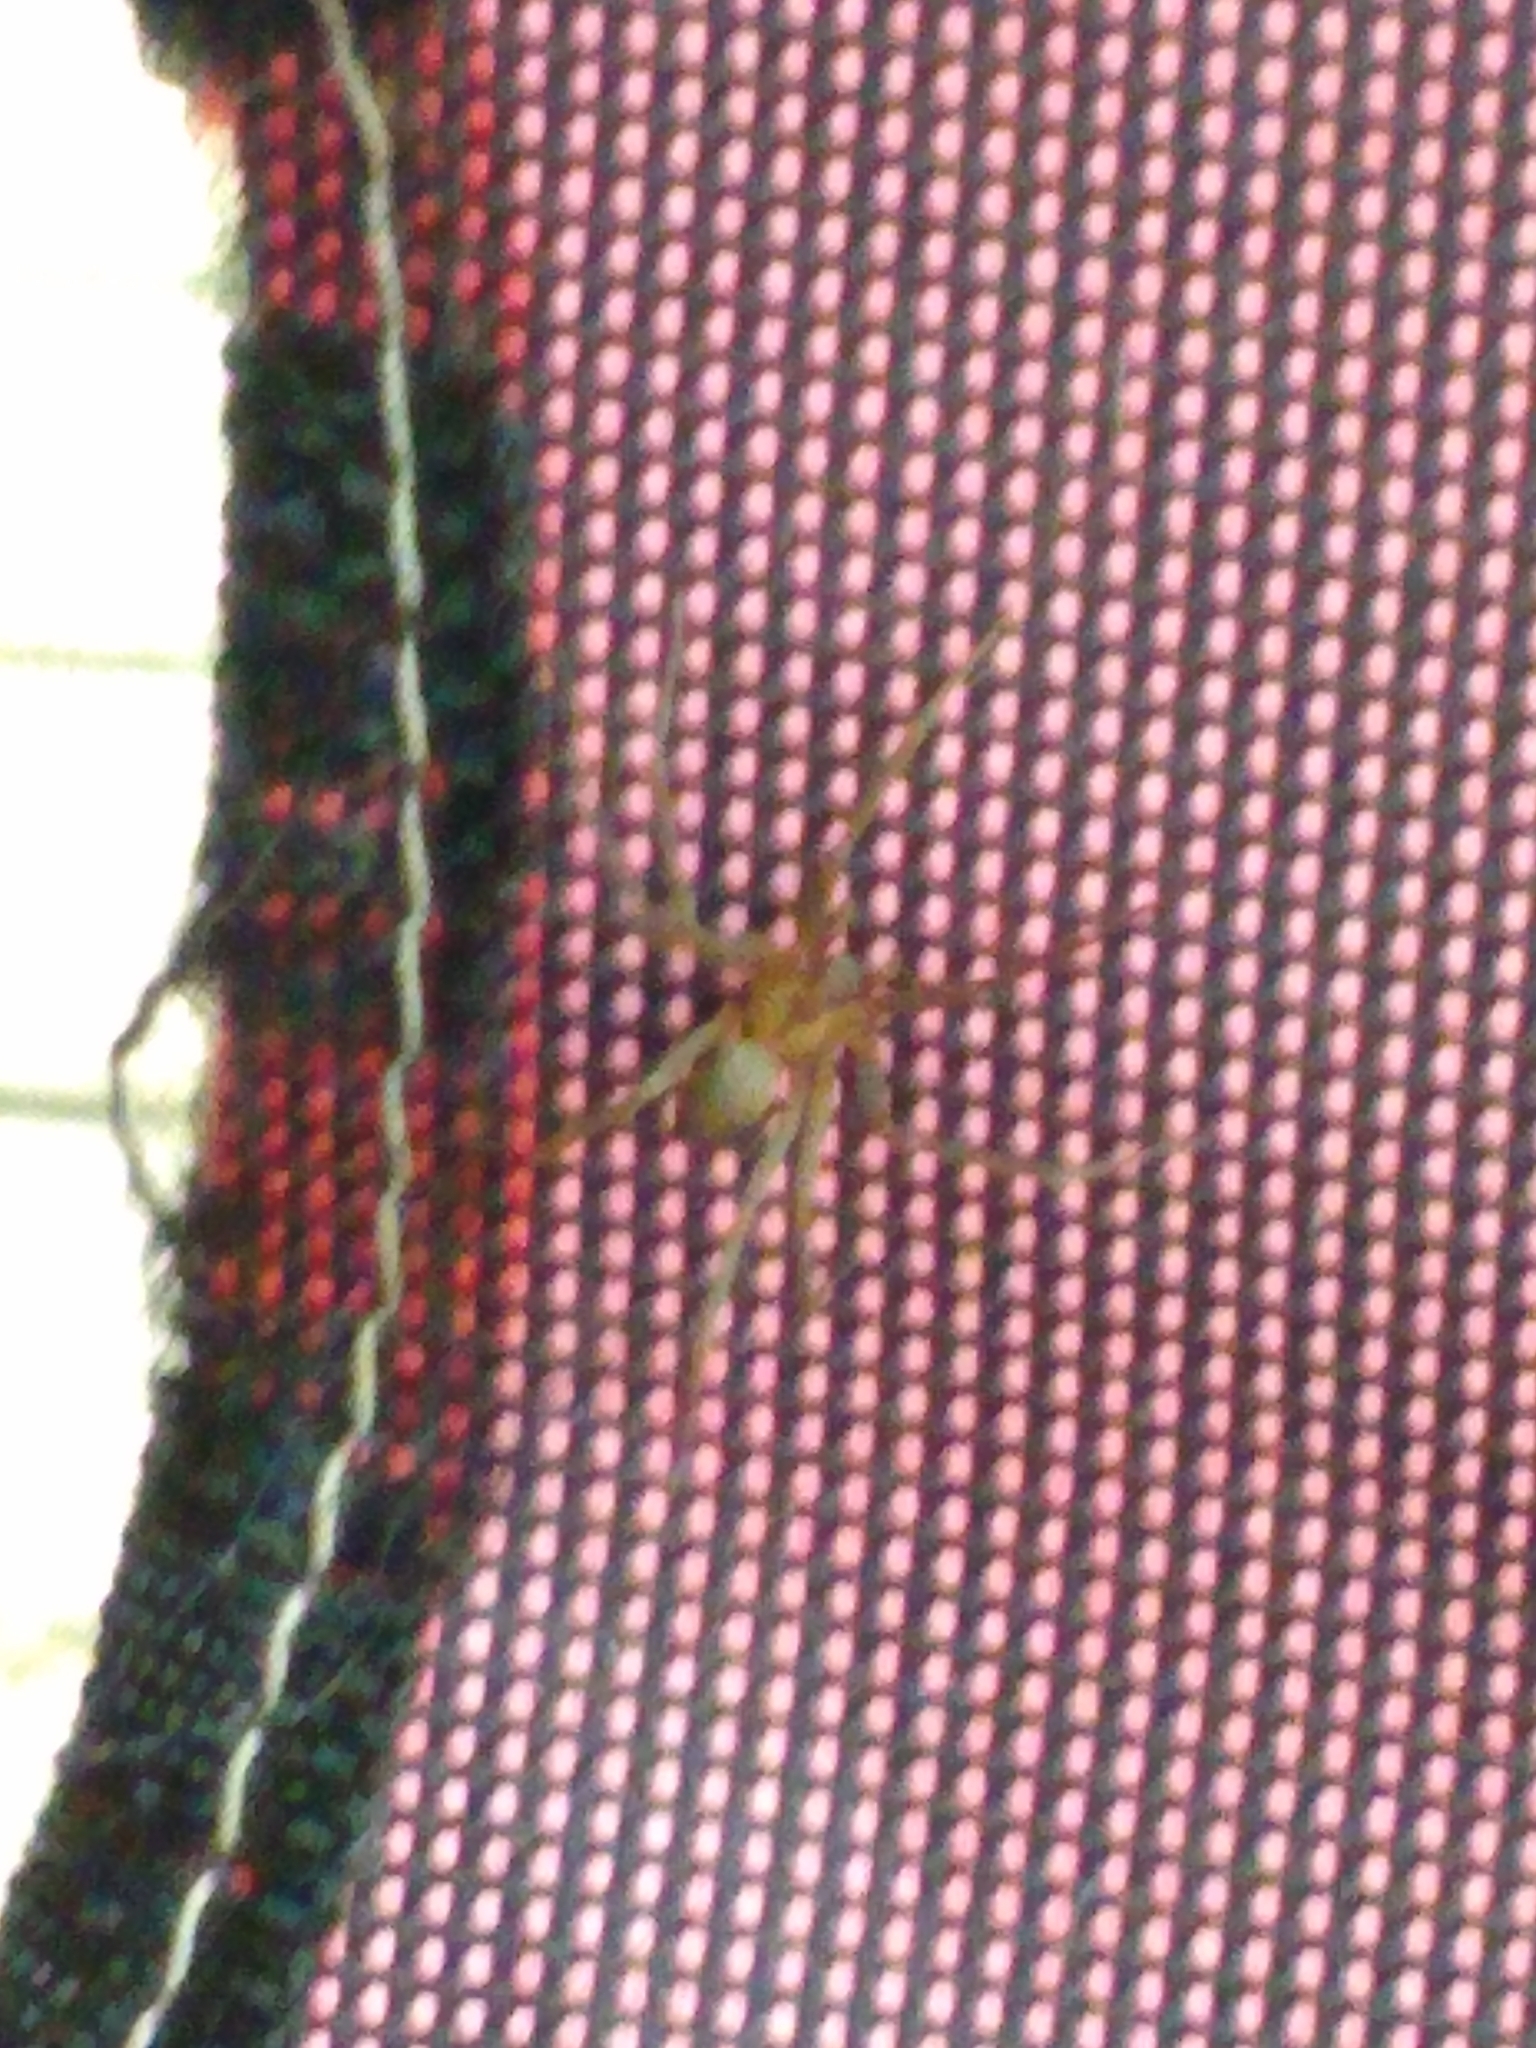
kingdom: Animalia
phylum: Arthropoda
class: Arachnida
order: Araneae
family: Sicariidae
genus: Loxosceles
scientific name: Loxosceles reclusa
